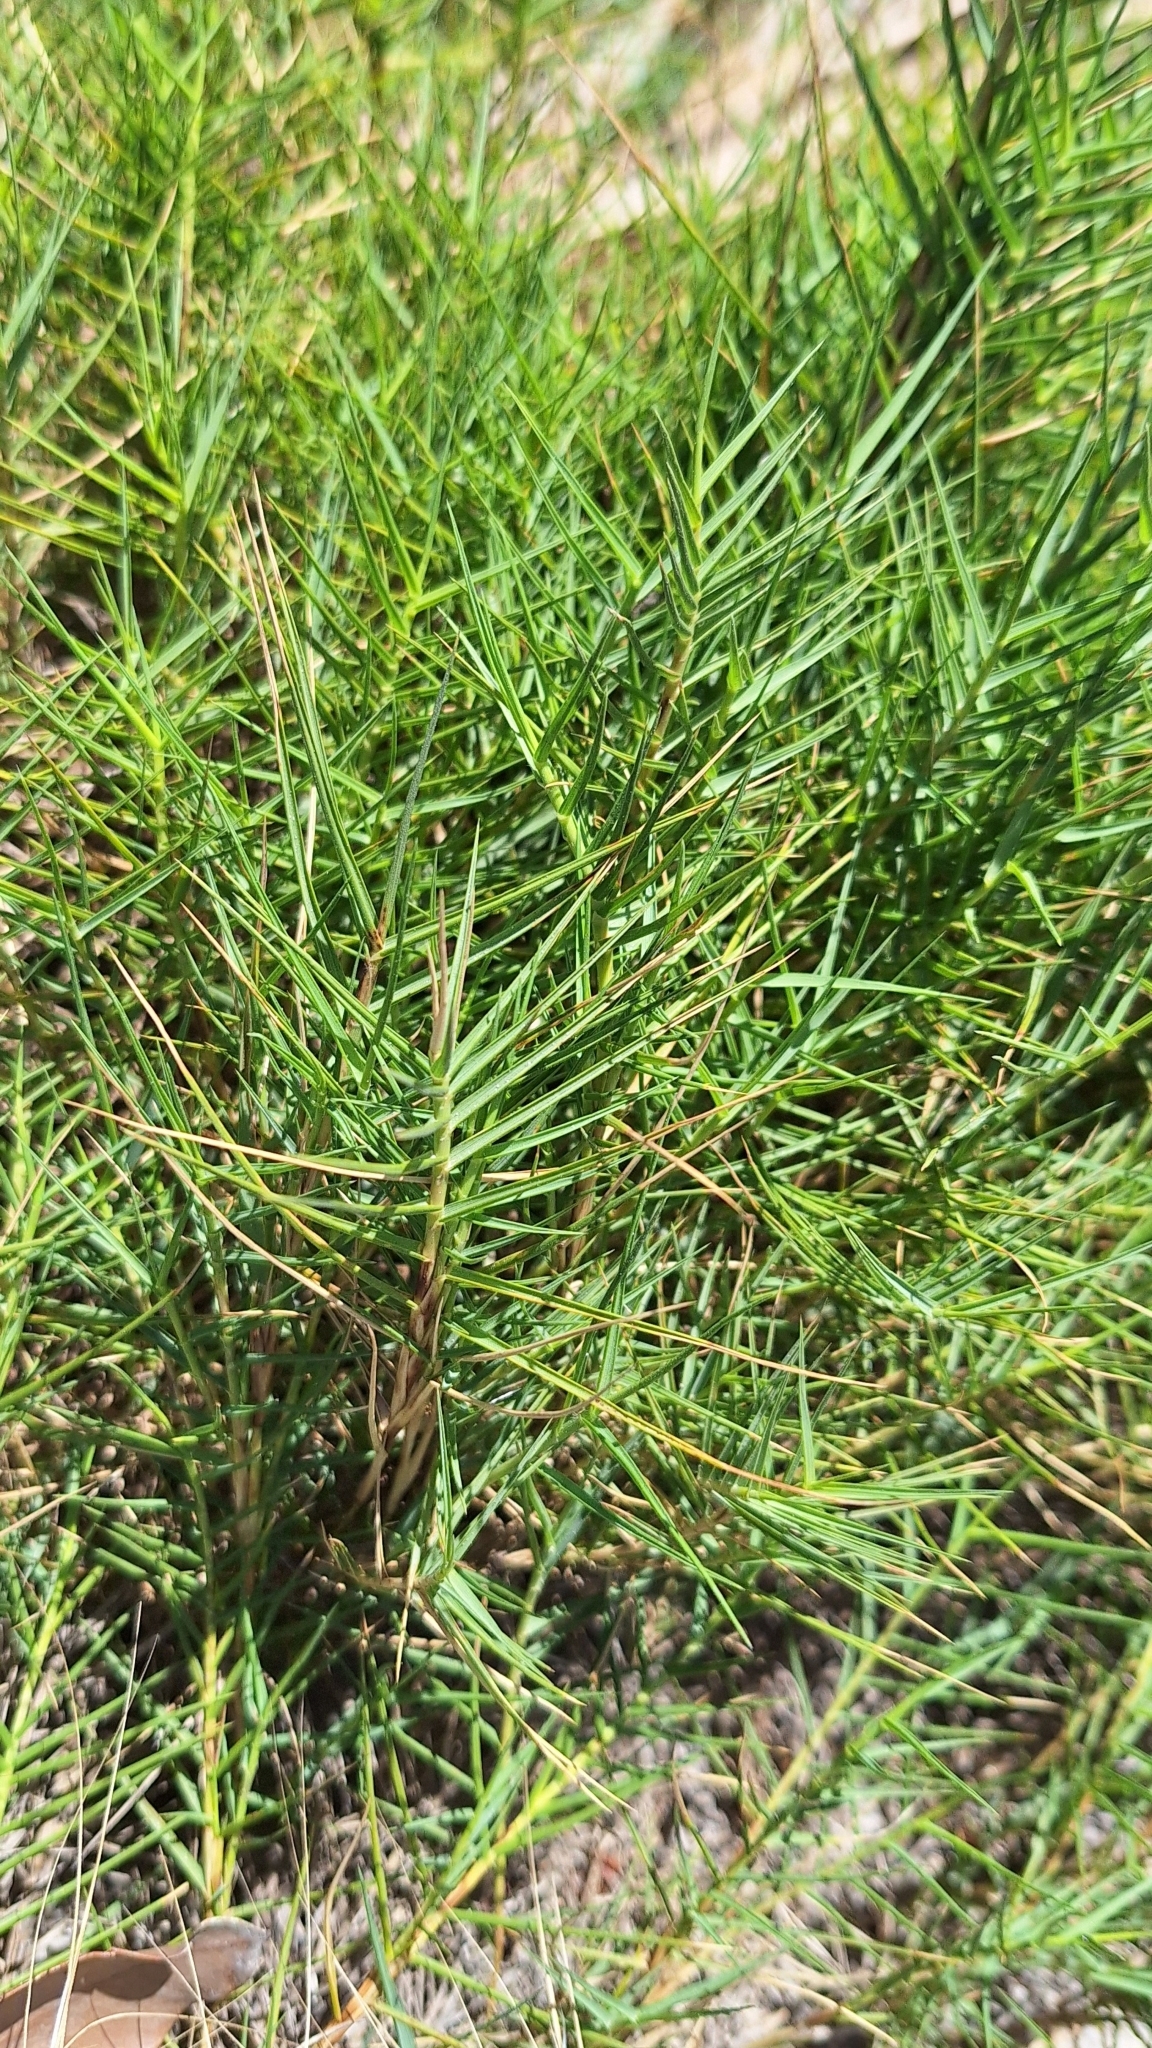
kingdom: Plantae
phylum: Tracheophyta
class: Liliopsida
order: Poales
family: Poaceae
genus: Distichlis
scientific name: Distichlis distichophylla
